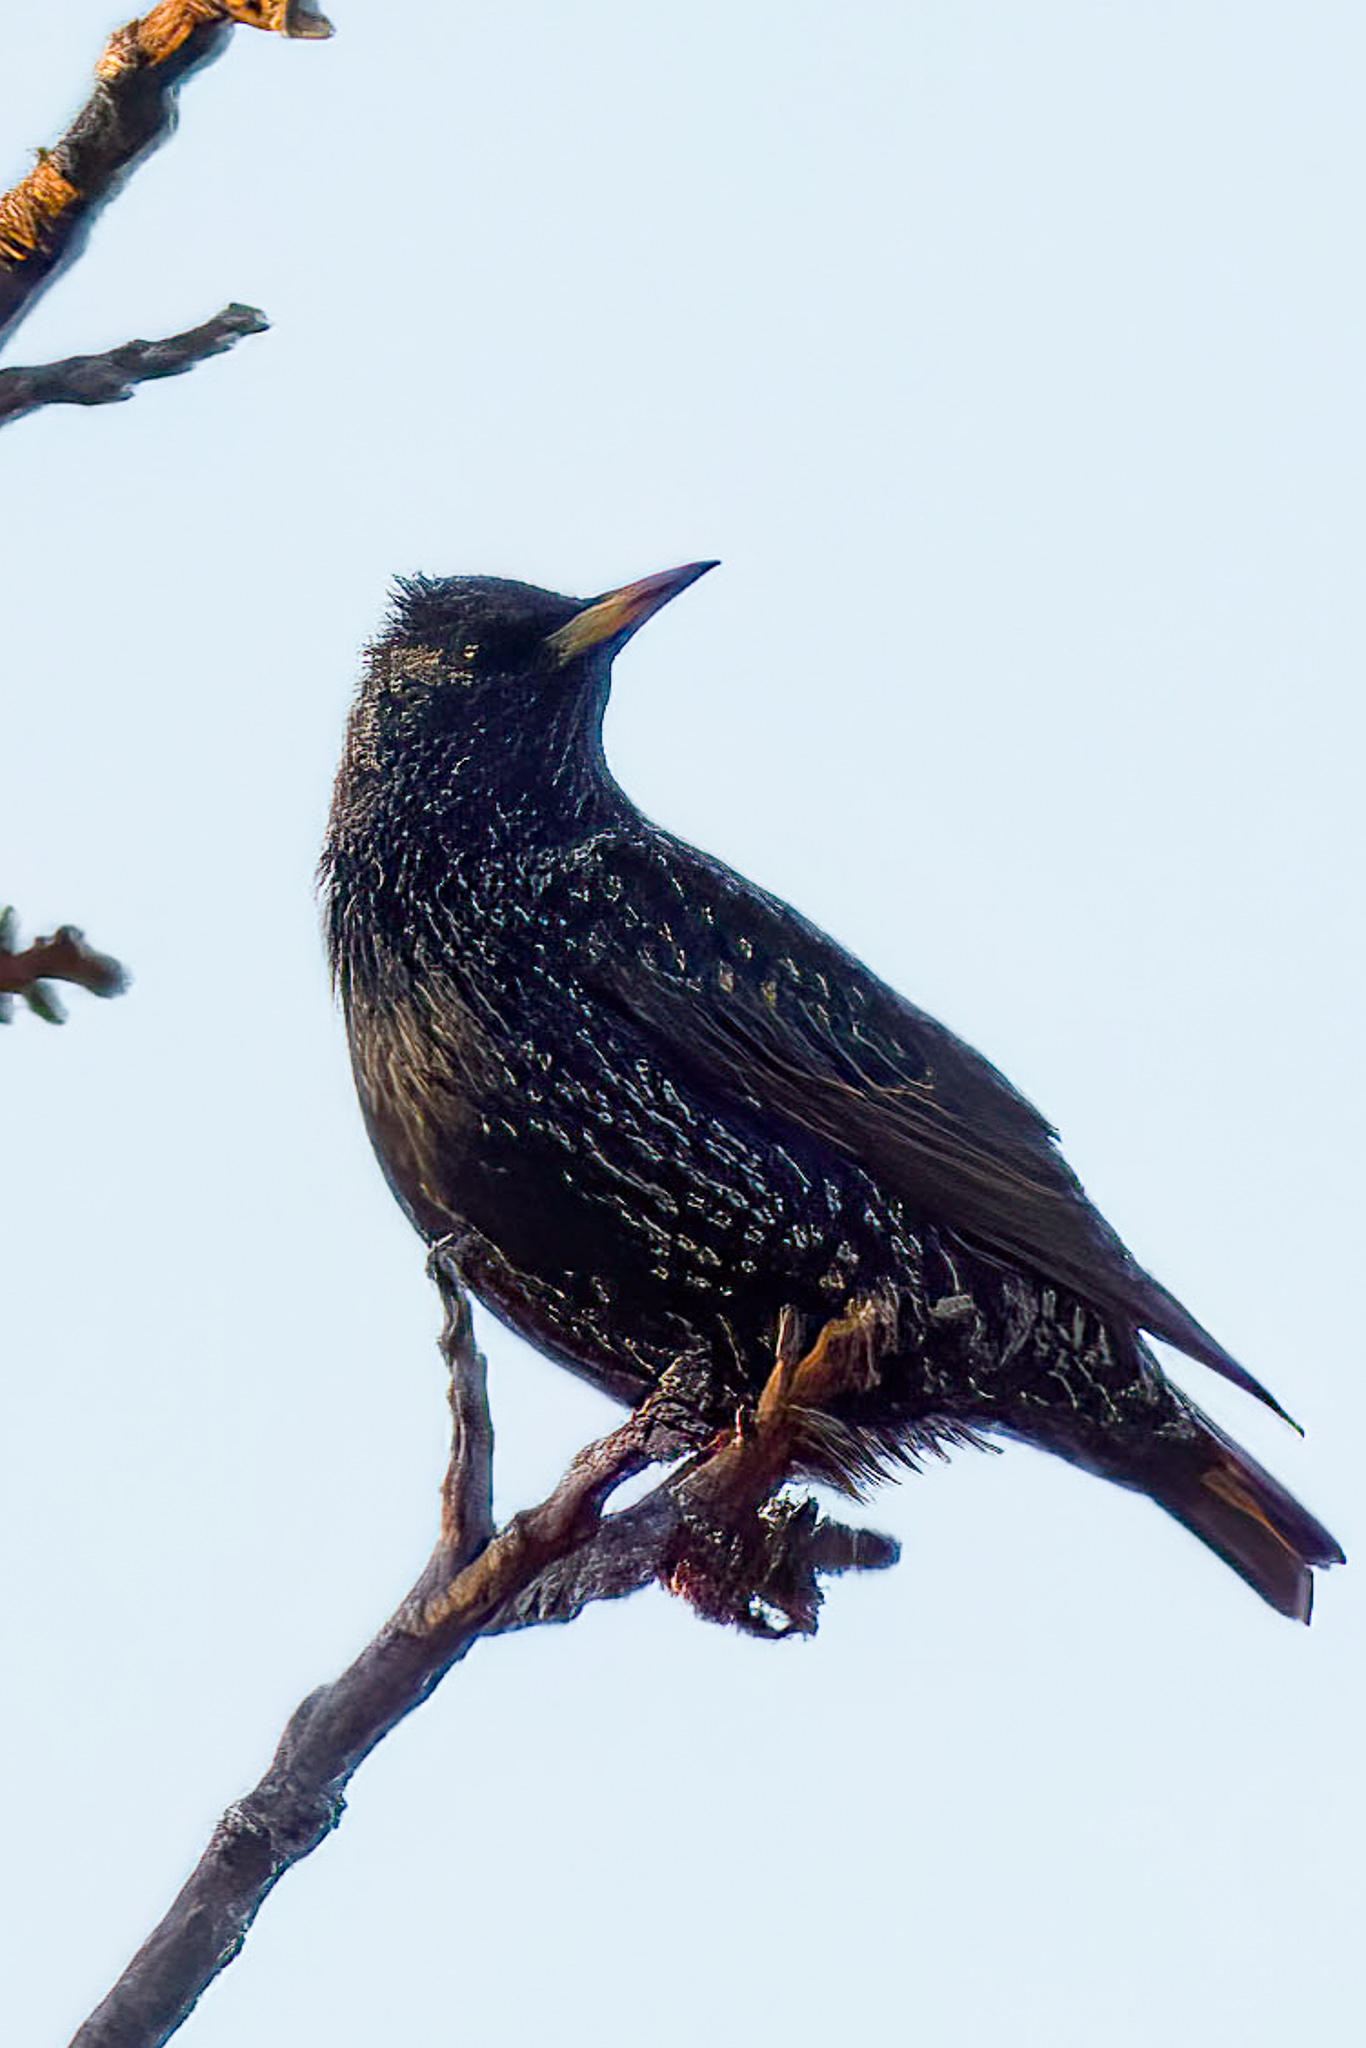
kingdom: Animalia
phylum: Chordata
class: Aves
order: Passeriformes
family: Sturnidae
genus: Sturnus
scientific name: Sturnus vulgaris
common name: Common starling
